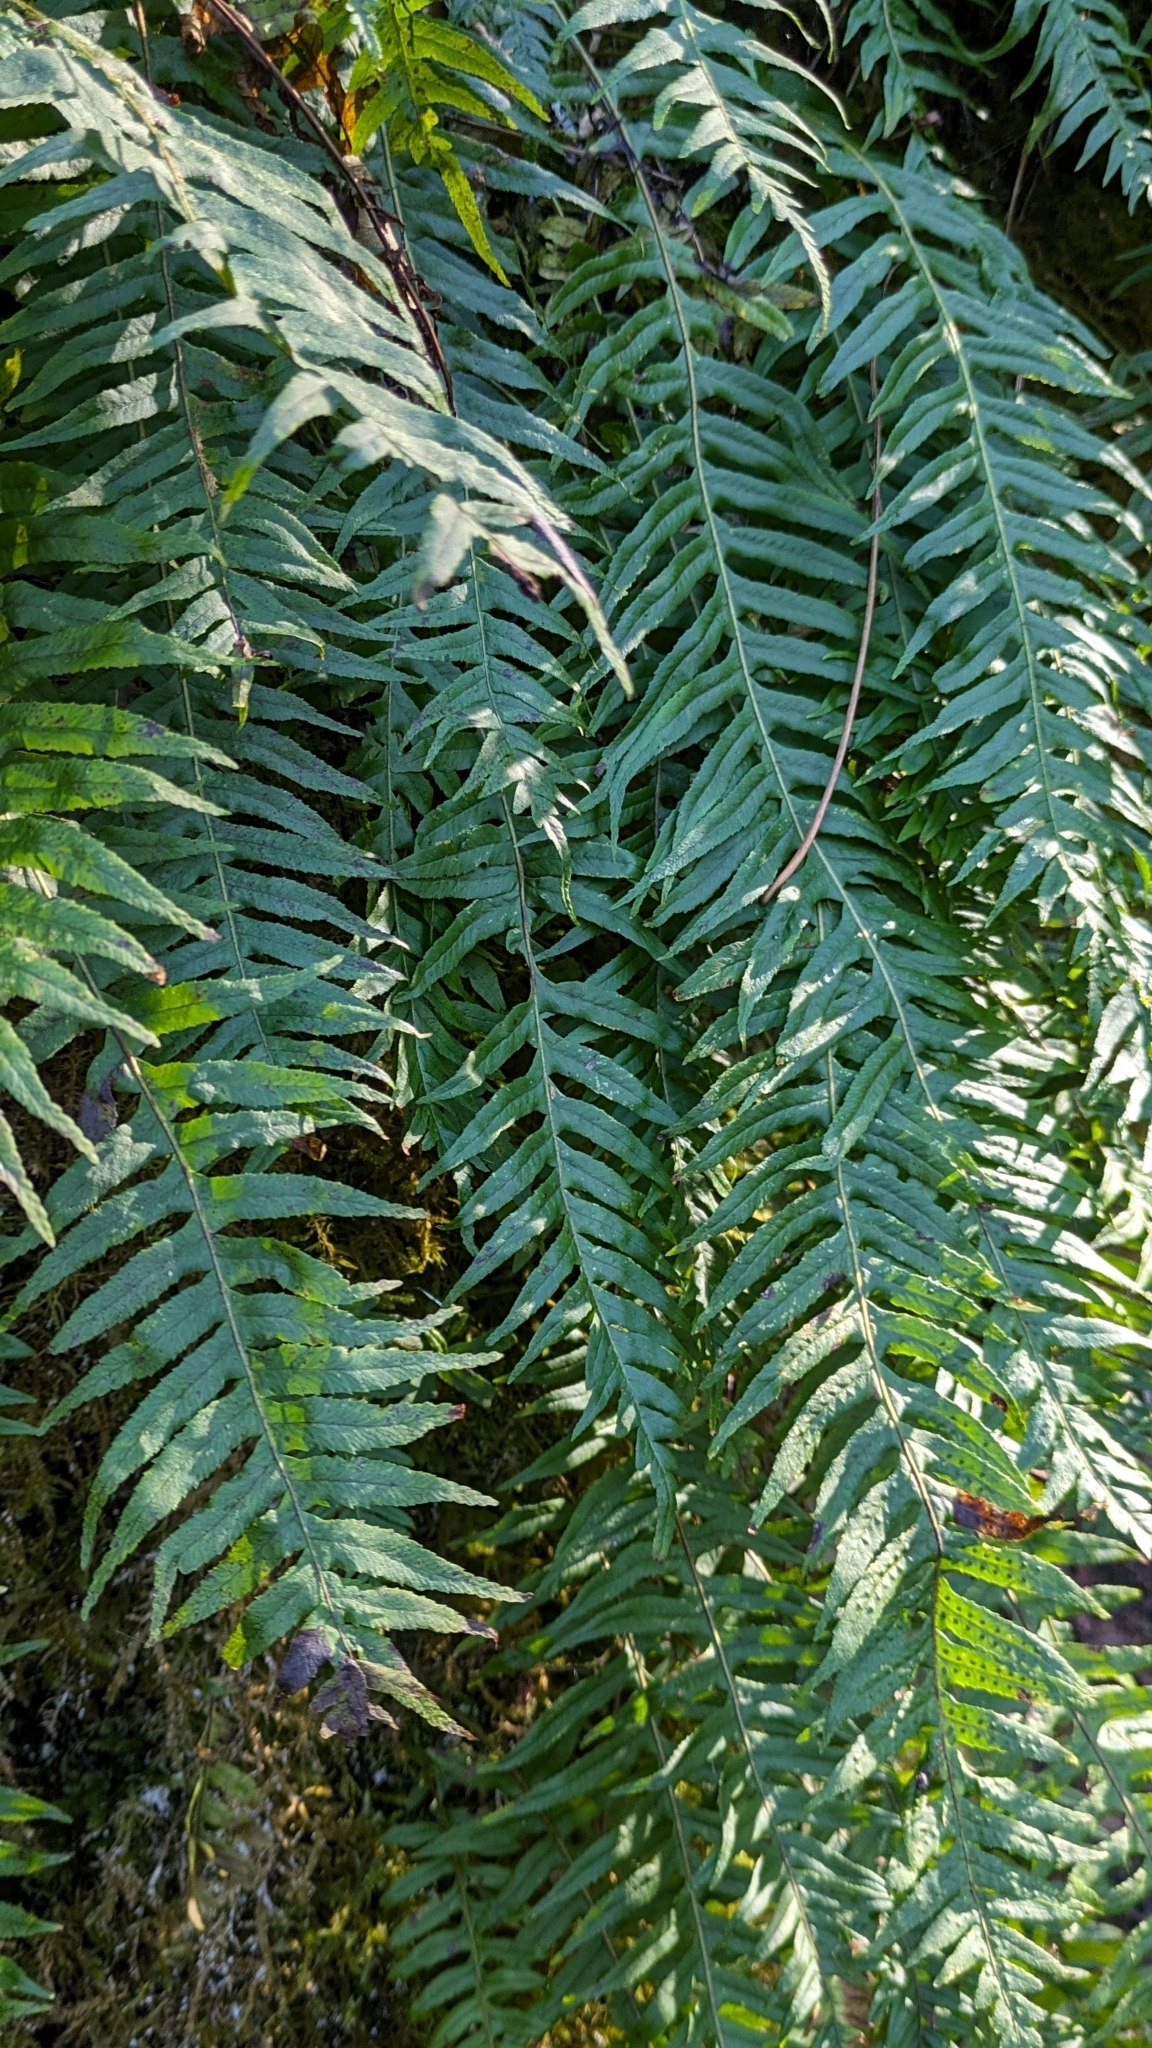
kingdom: Plantae
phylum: Tracheophyta
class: Polypodiopsida
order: Polypodiales
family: Polypodiaceae
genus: Polypodium
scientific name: Polypodium glycyrrhiza
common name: Licorice fern
